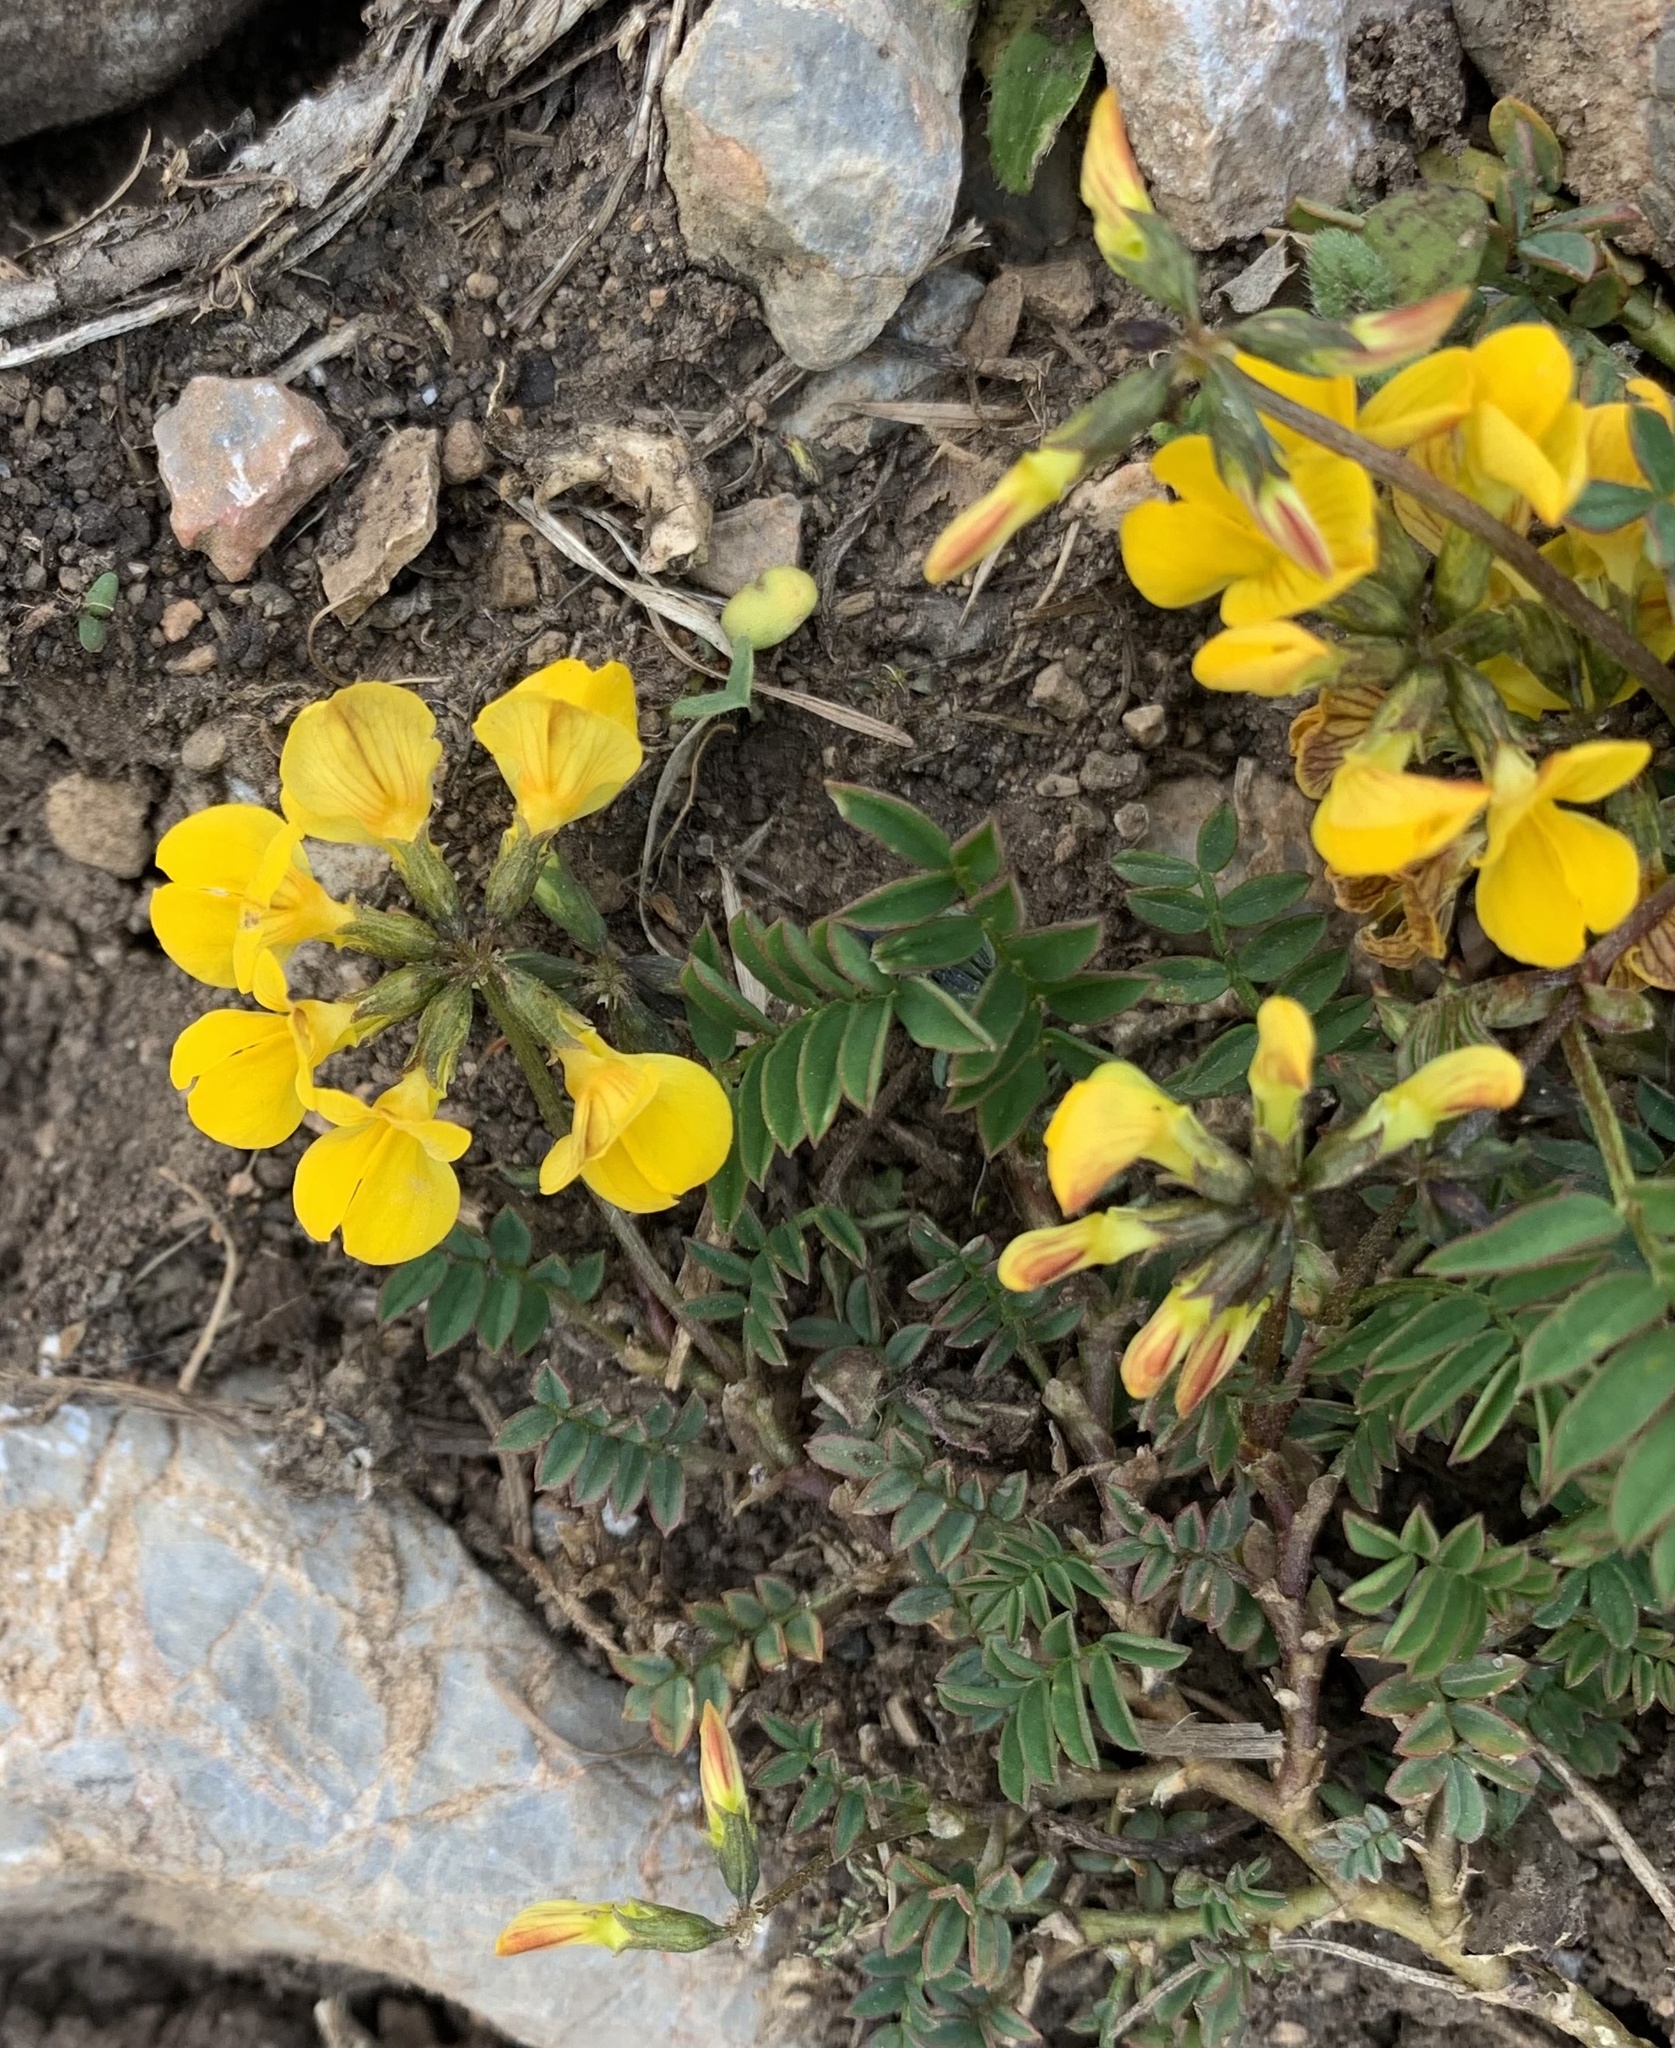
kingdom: Plantae
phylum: Tracheophyta
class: Magnoliopsida
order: Fabales
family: Fabaceae
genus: Hippocrepis
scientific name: Hippocrepis comosa
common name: Horseshoe vetch
